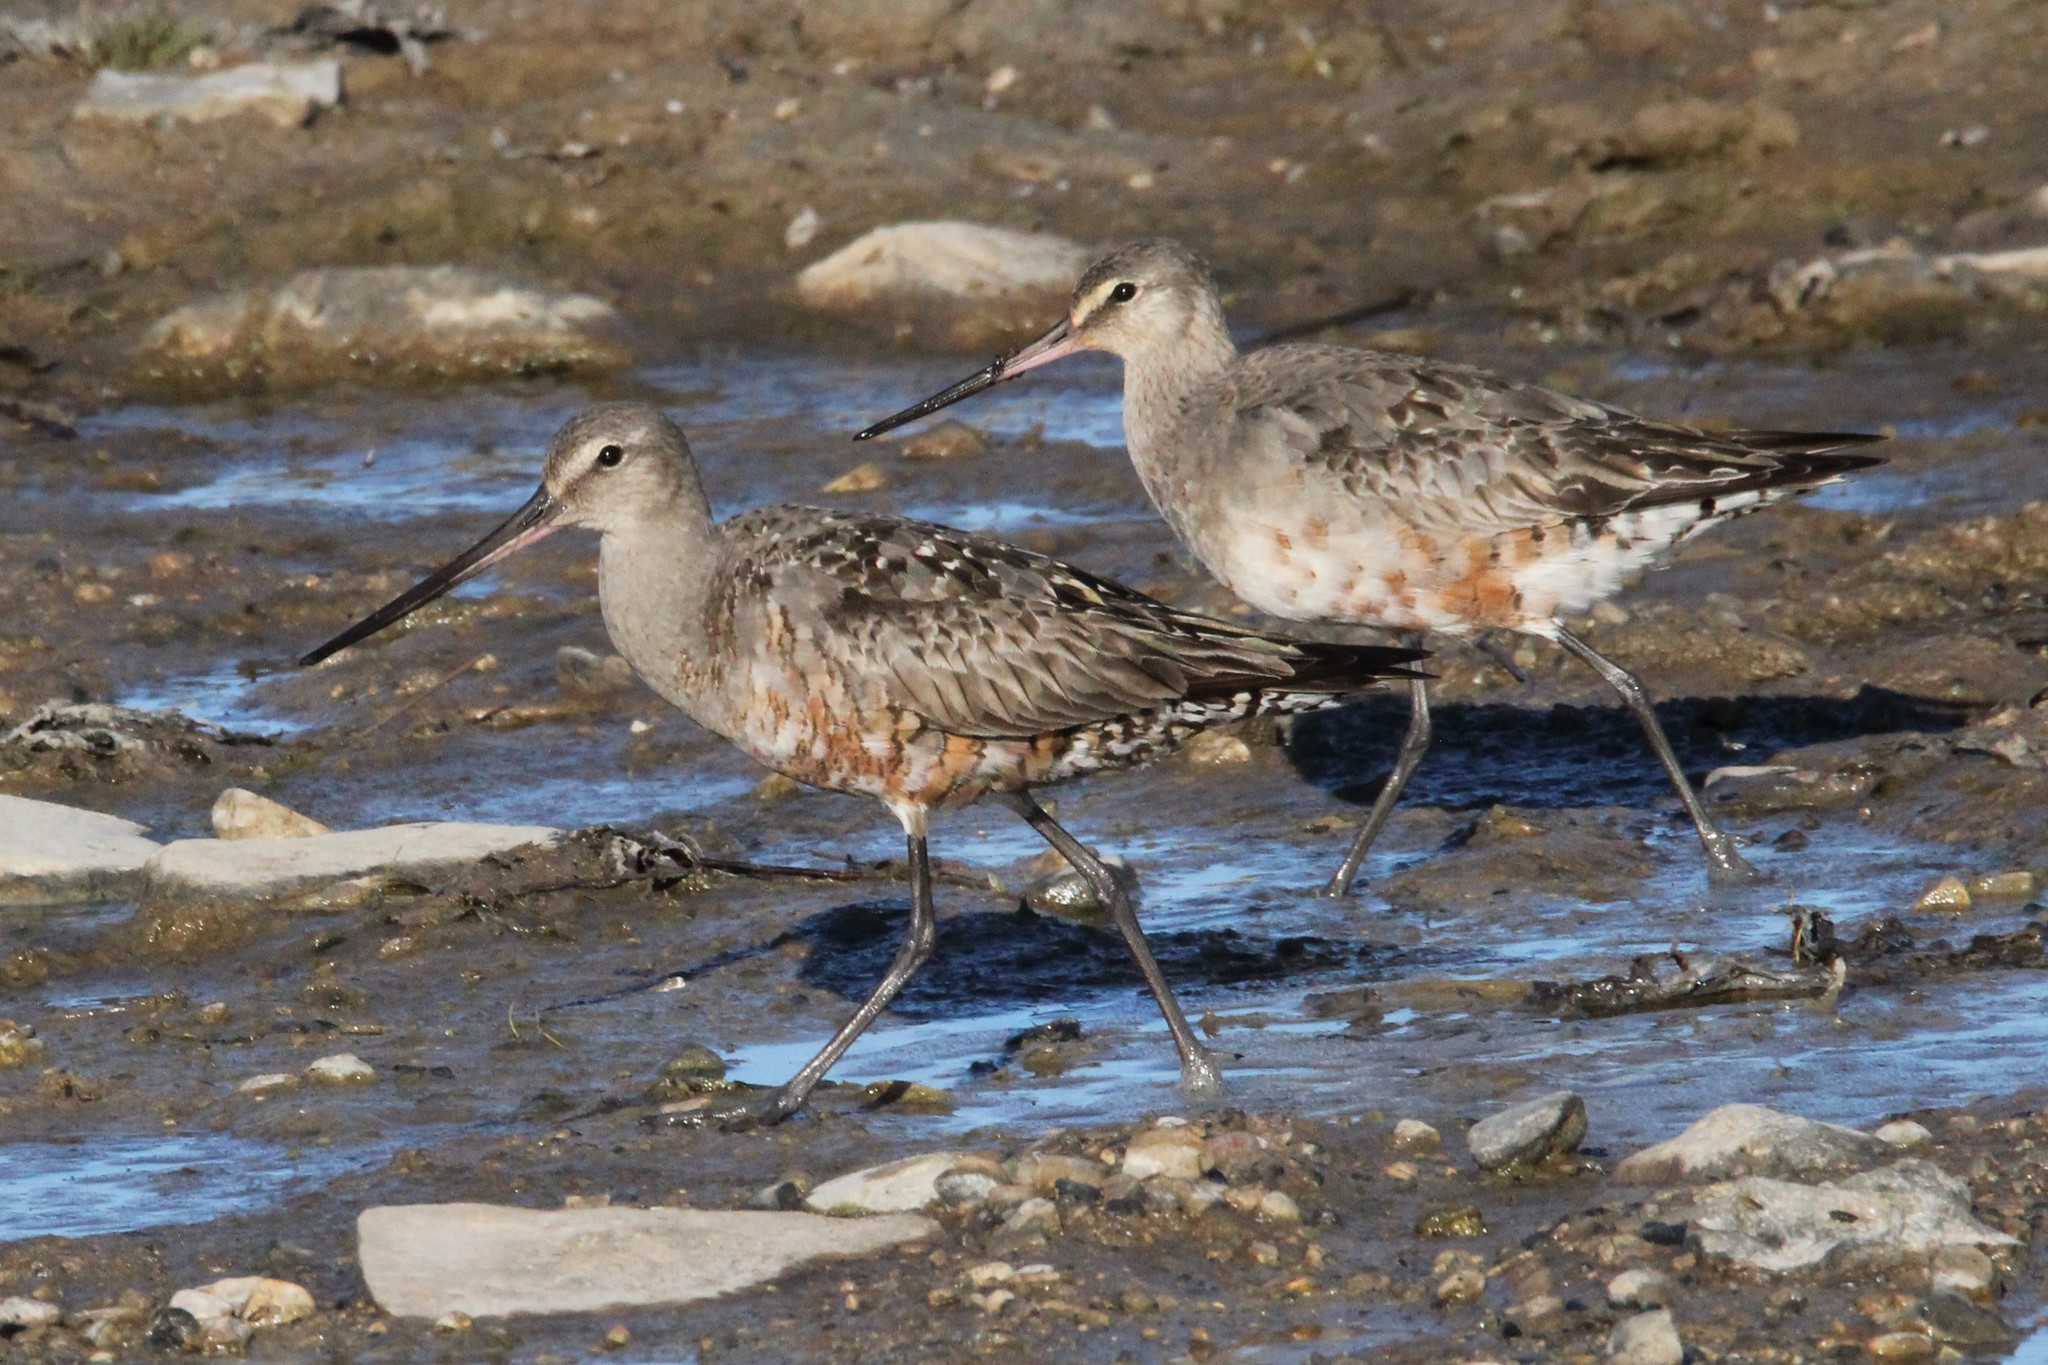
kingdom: Animalia
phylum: Chordata
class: Aves
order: Charadriiformes
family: Scolopacidae
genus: Limosa
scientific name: Limosa haemastica
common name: Hudsonian godwit
